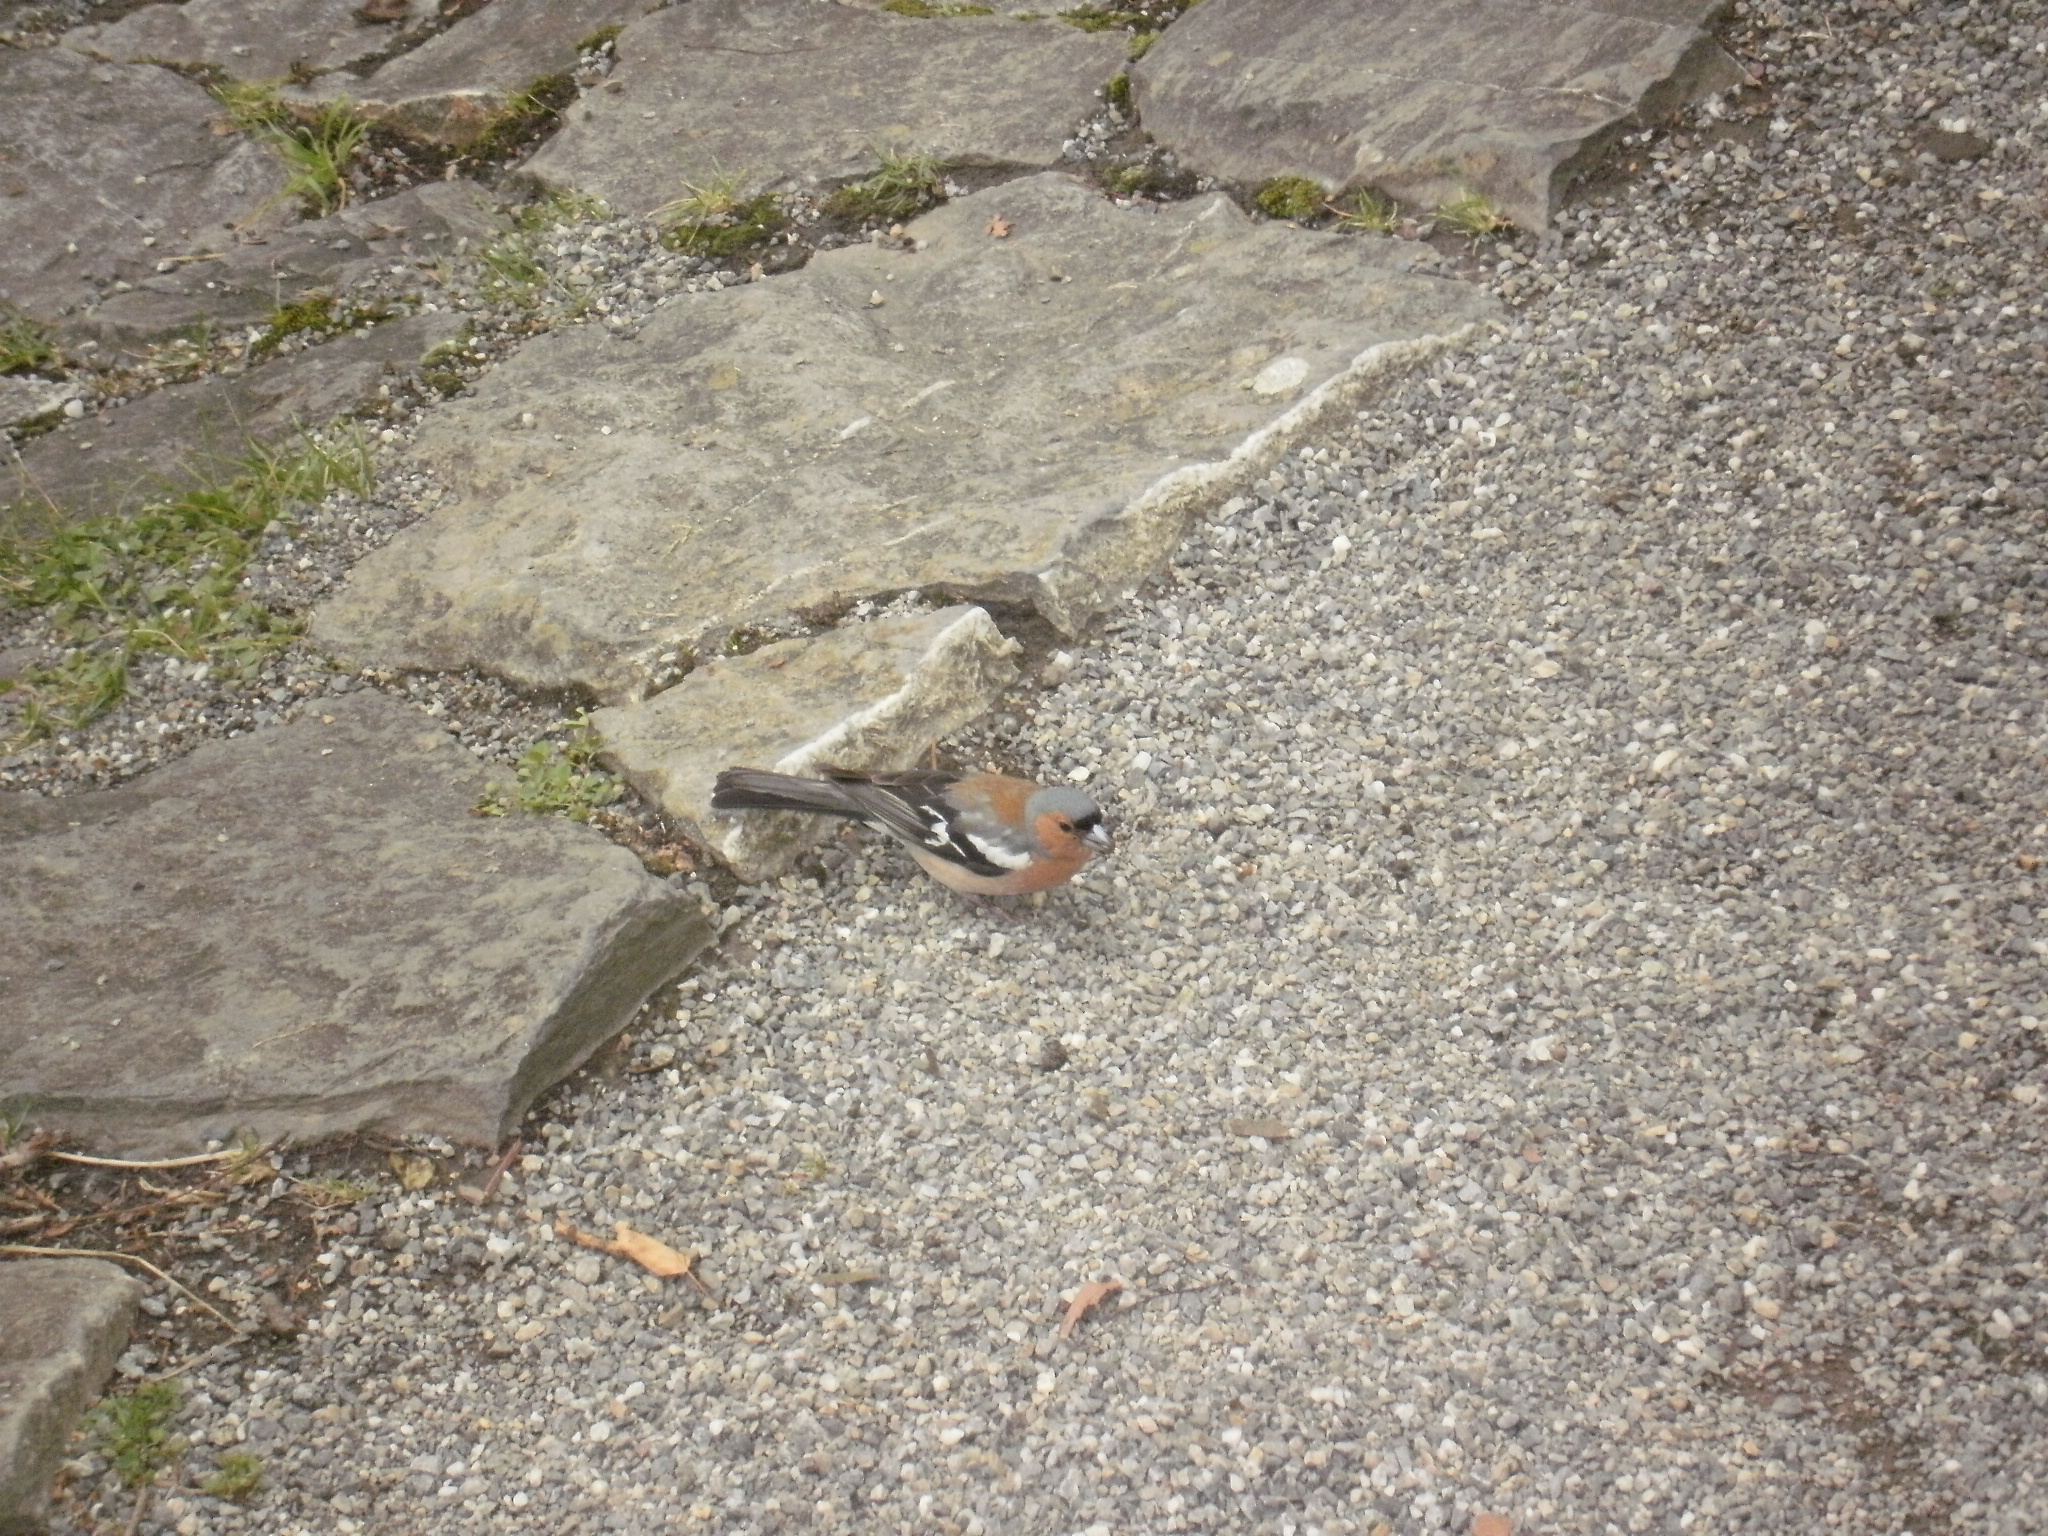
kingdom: Animalia
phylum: Chordata
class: Aves
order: Passeriformes
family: Fringillidae
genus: Fringilla
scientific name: Fringilla coelebs
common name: Common chaffinch
